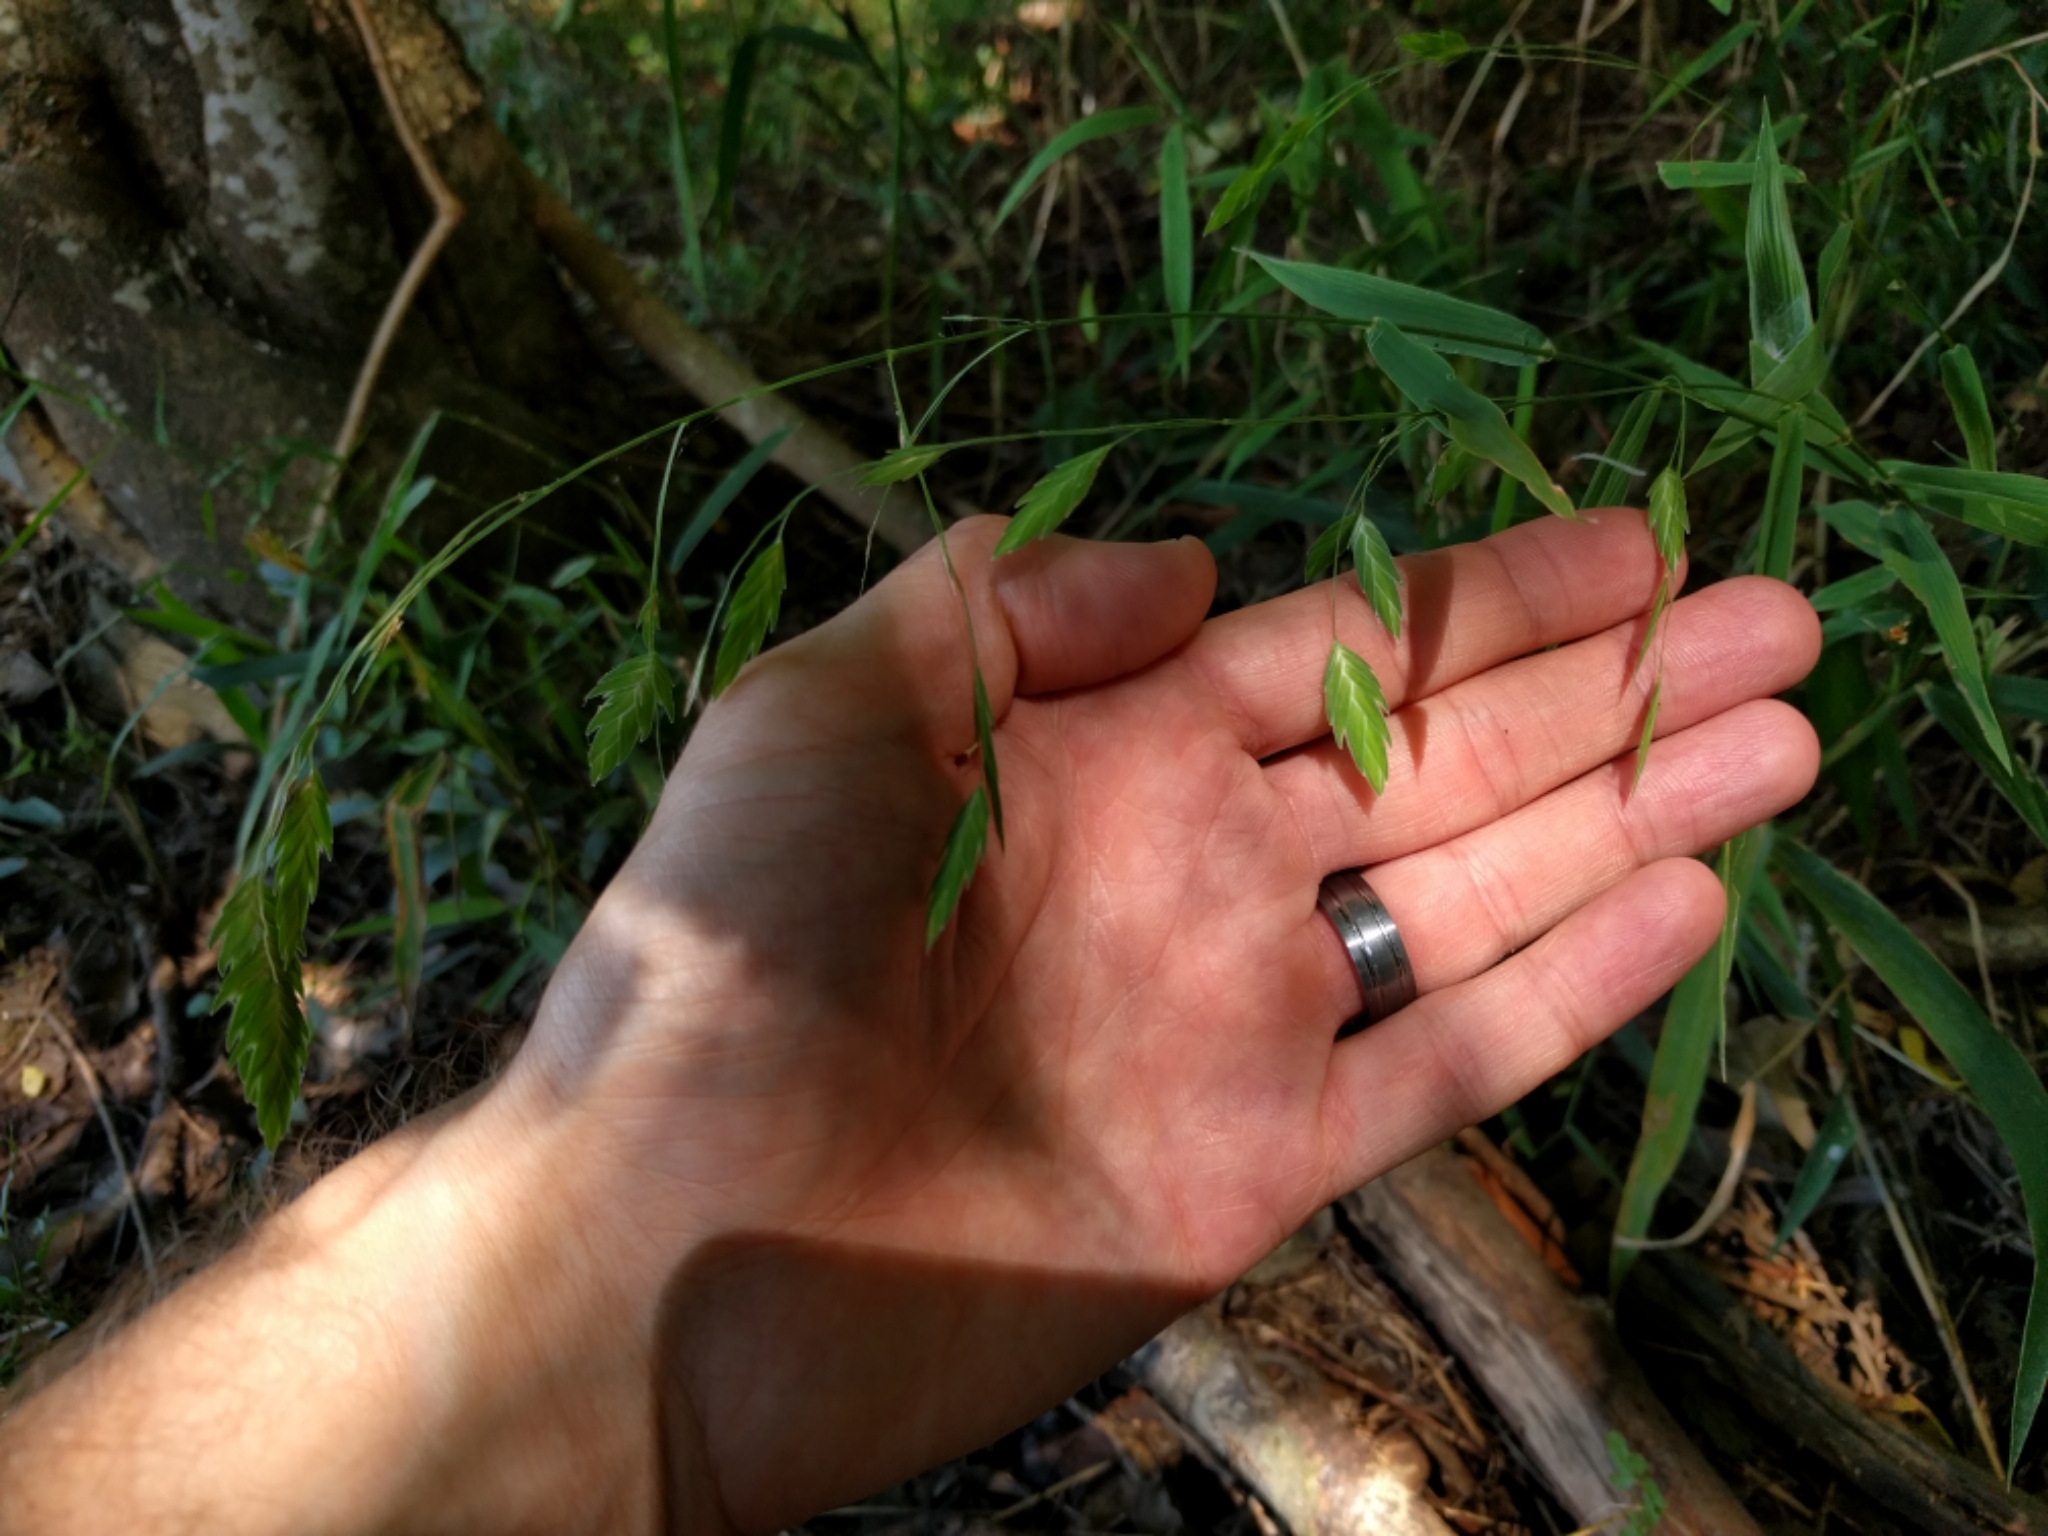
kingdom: Plantae
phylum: Tracheophyta
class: Liliopsida
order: Poales
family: Poaceae
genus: Chasmanthium
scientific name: Chasmanthium latifolium
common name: Broad-leaved chasmanthium
